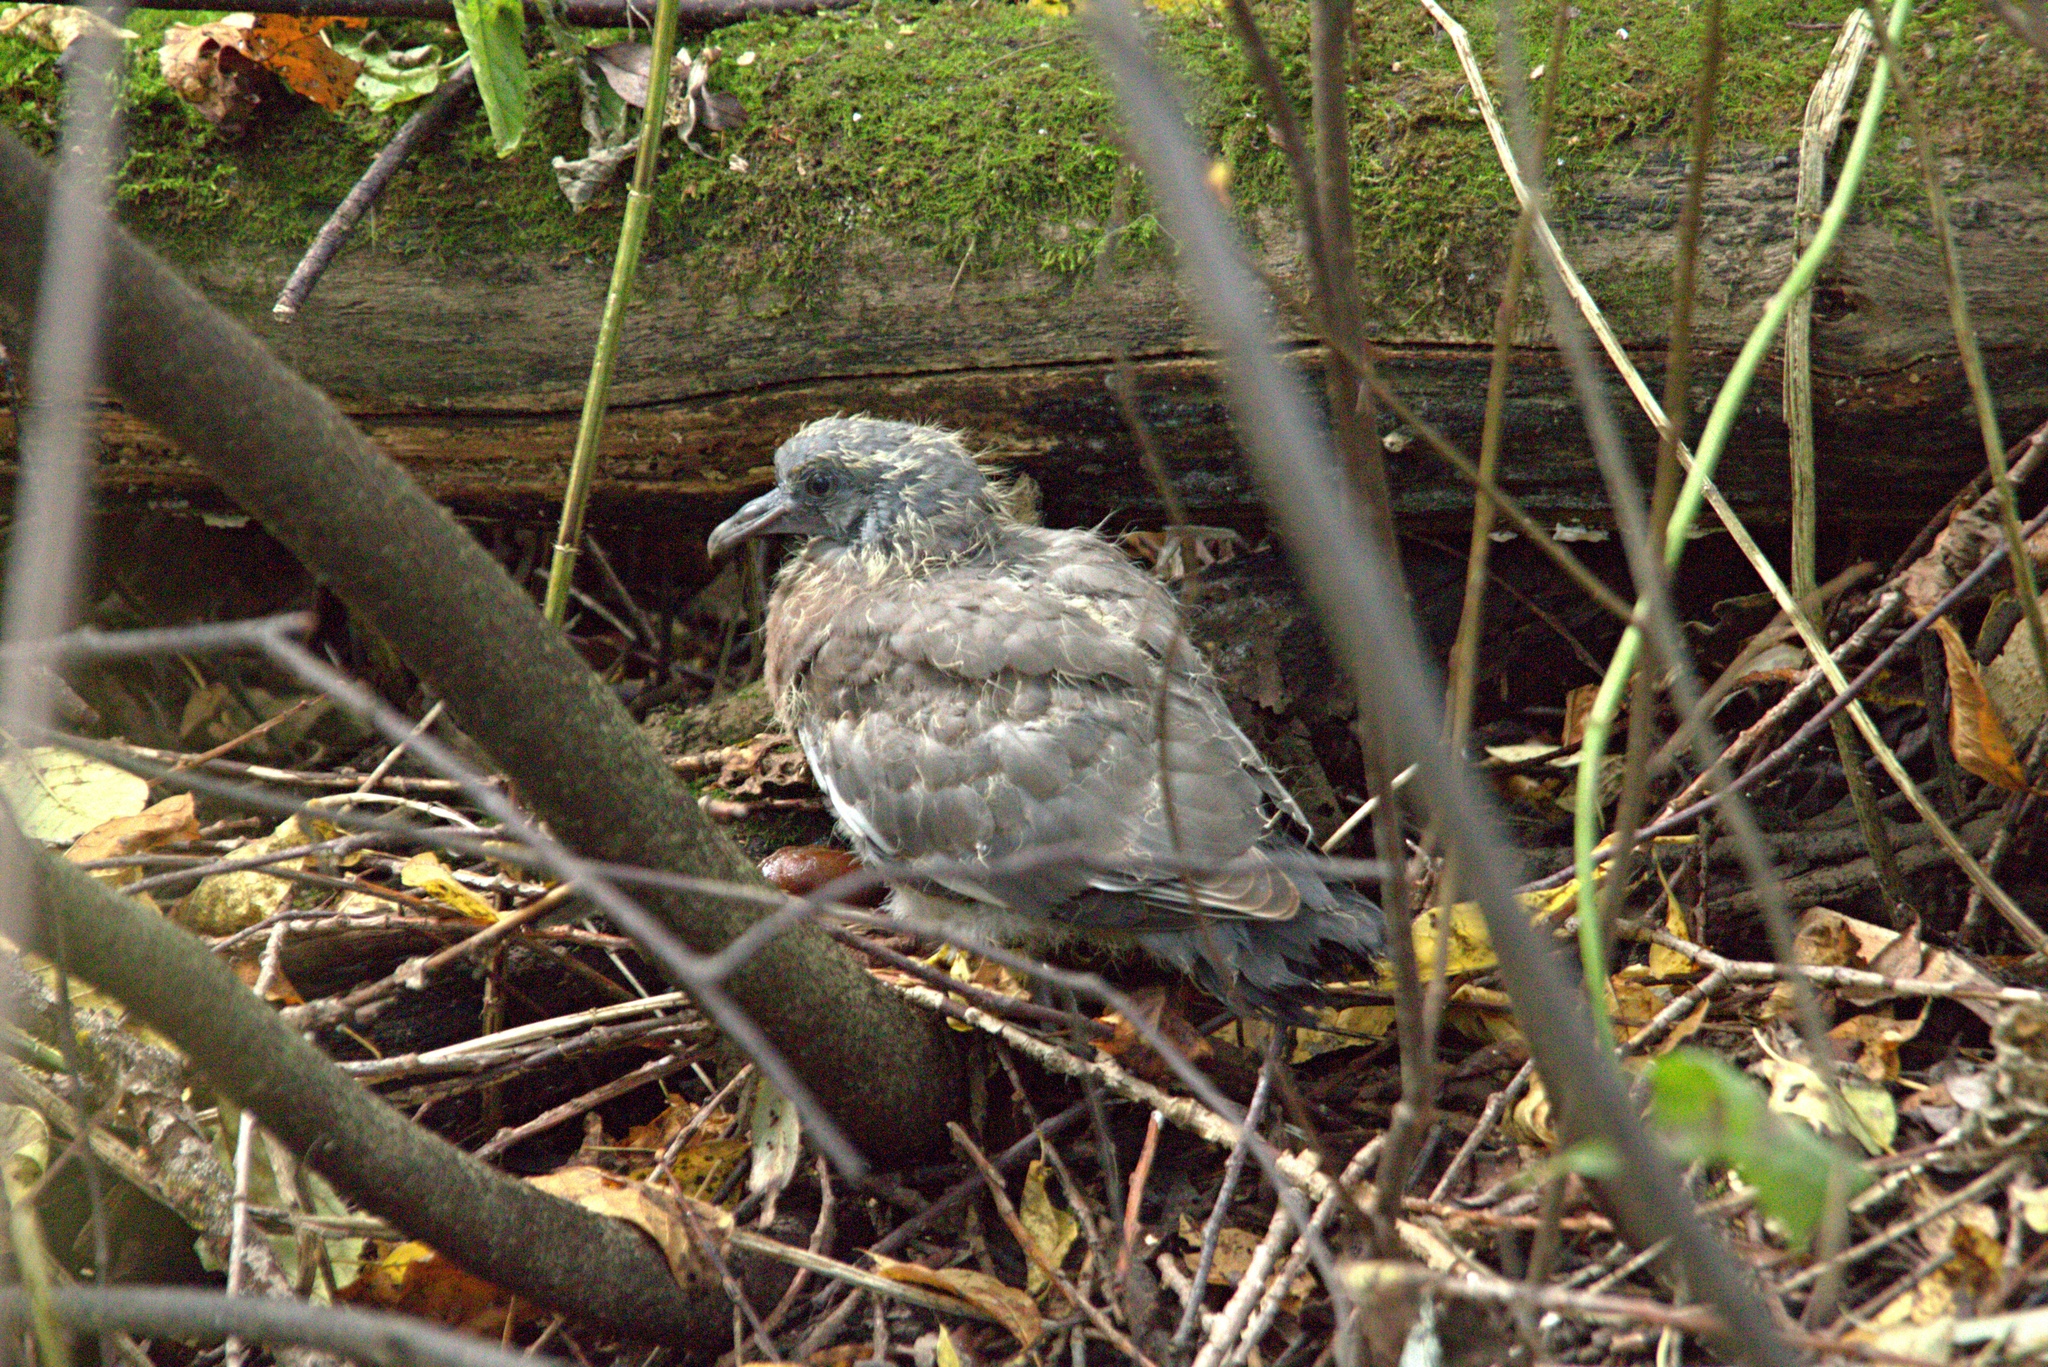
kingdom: Animalia
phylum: Chordata
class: Aves
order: Columbiformes
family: Columbidae
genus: Columba
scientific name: Columba palumbus
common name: Common wood pigeon
